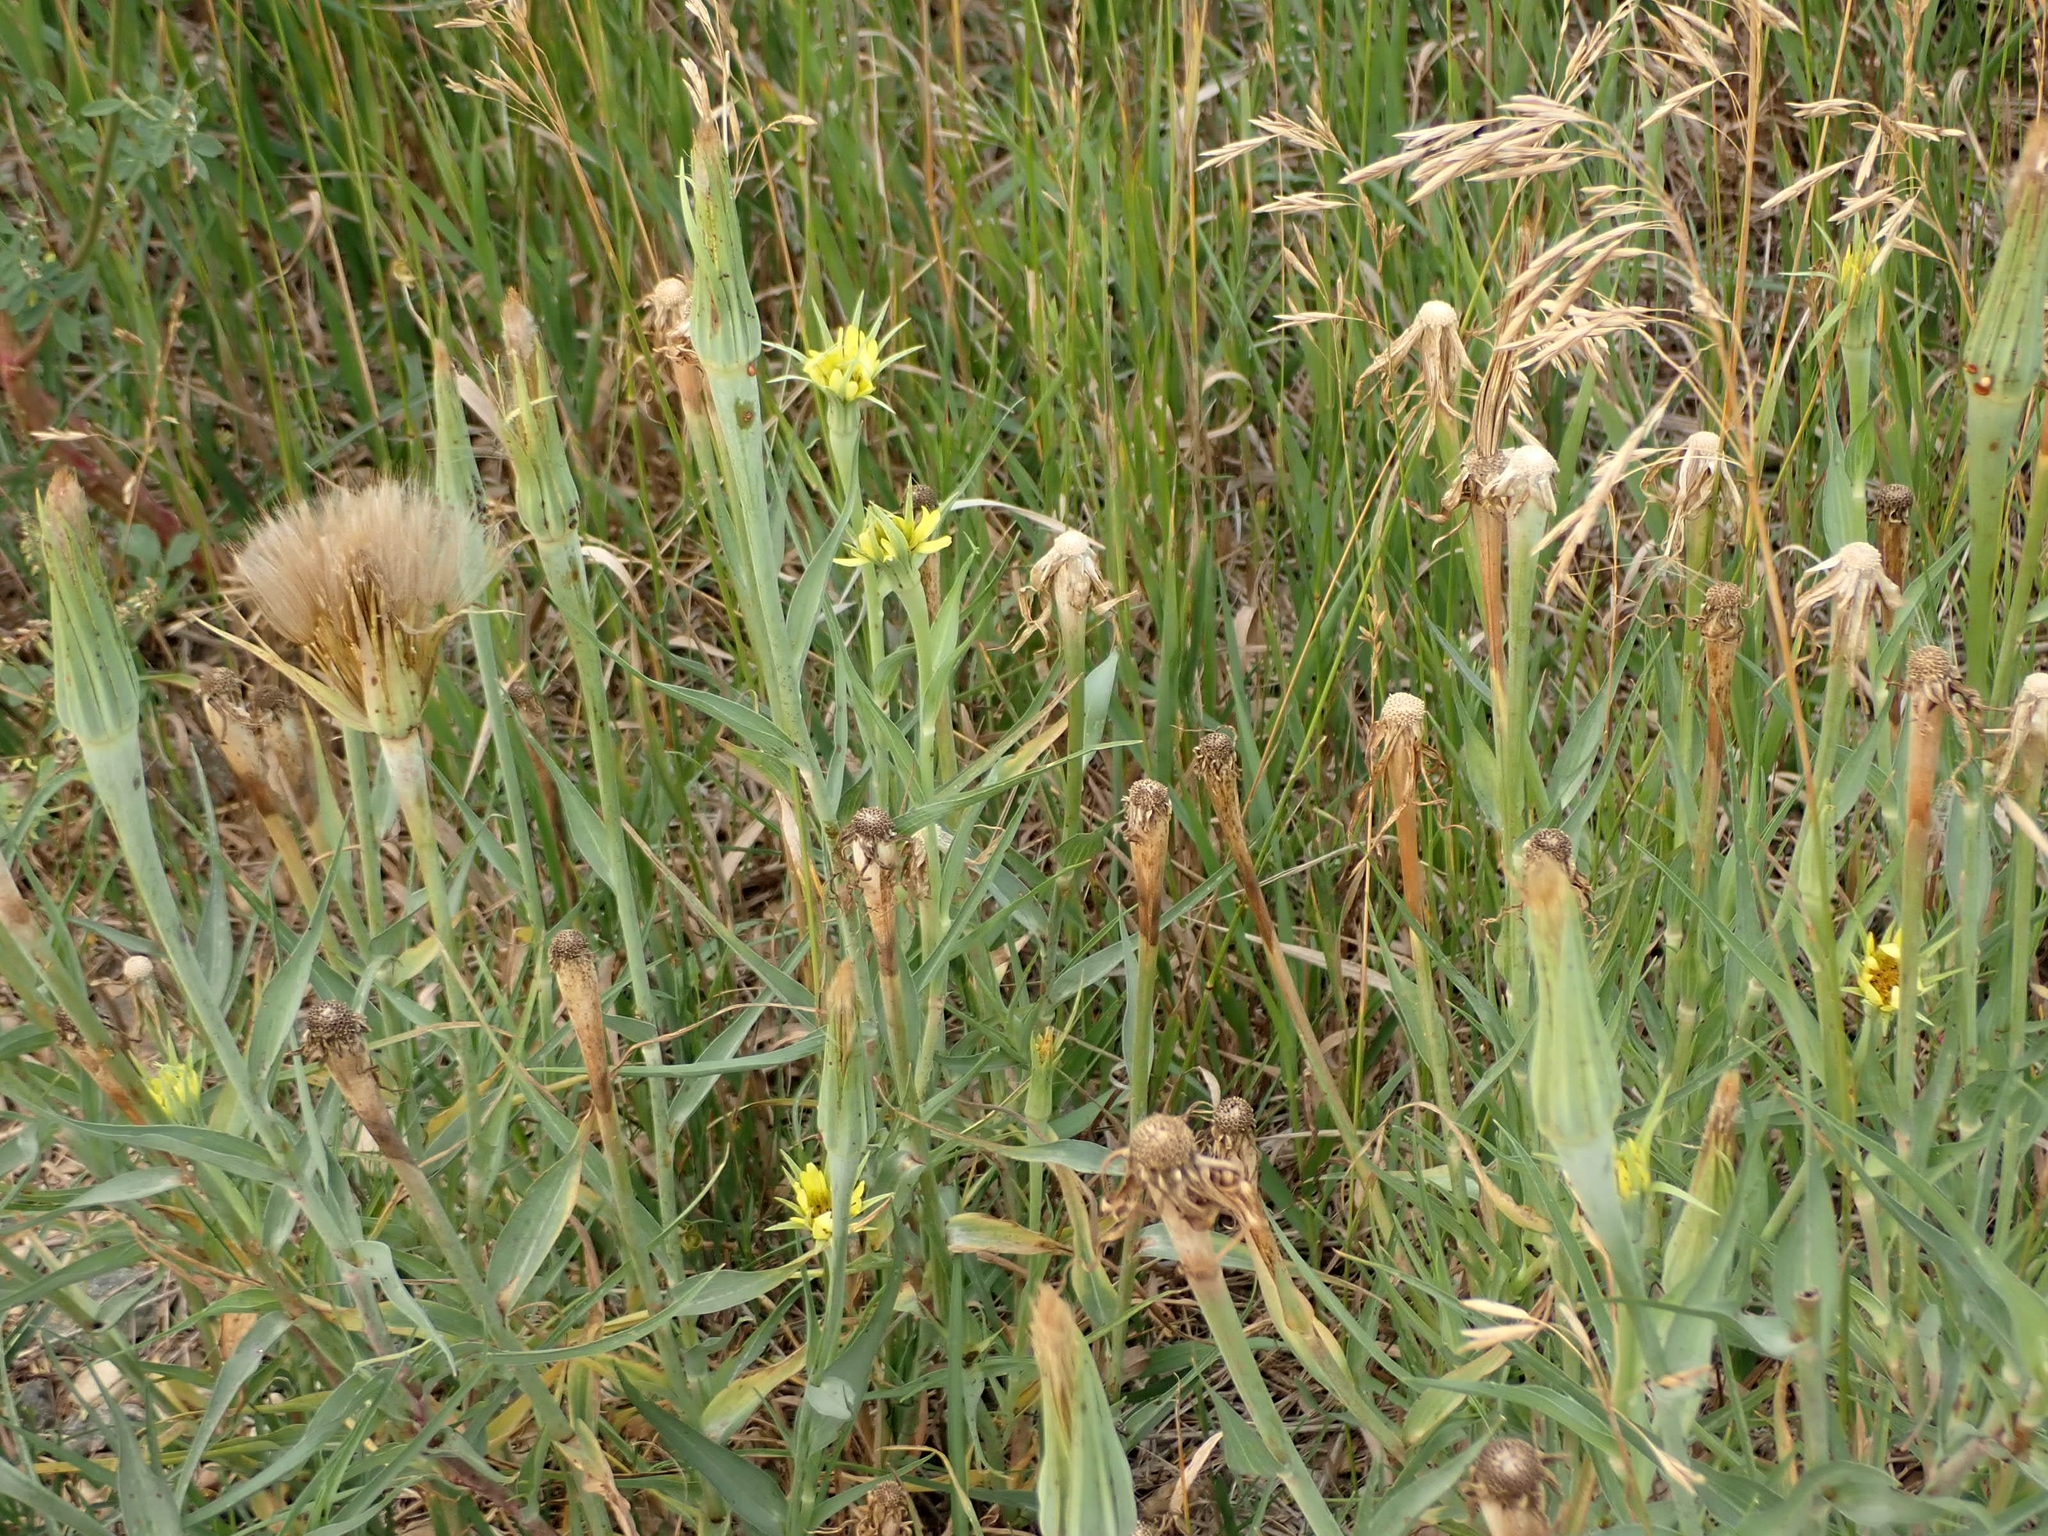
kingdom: Plantae
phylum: Tracheophyta
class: Magnoliopsida
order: Asterales
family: Asteraceae
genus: Tragopogon
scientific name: Tragopogon dubius
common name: Yellow salsify
